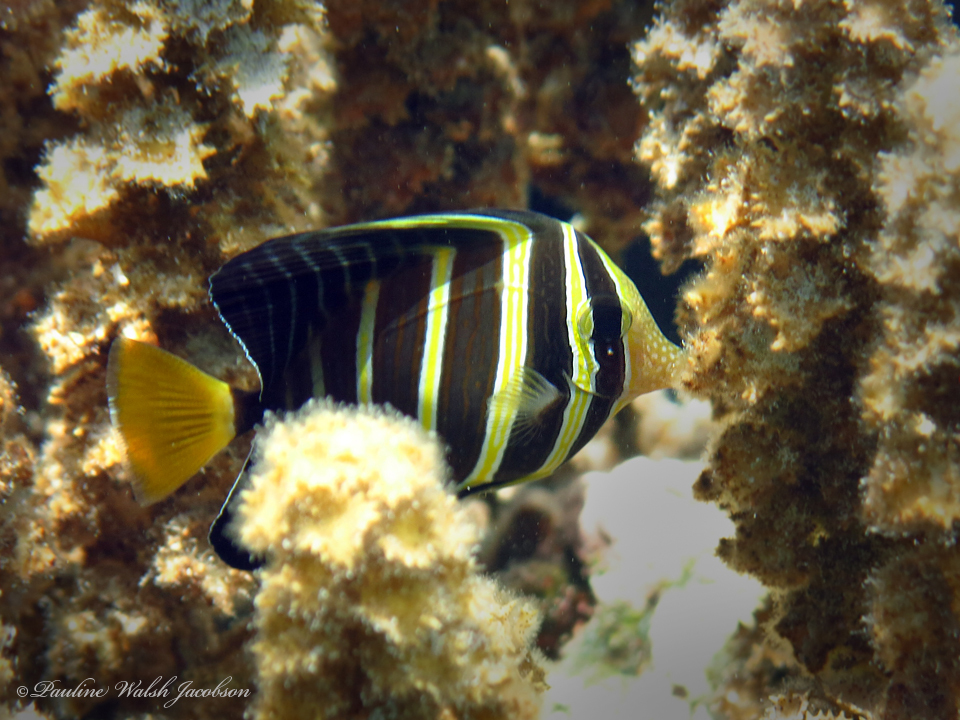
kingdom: Animalia
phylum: Chordata
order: Perciformes
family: Acanthuridae
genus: Zebrasoma
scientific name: Zebrasoma veliferum
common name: Sailfin surgeonfish
